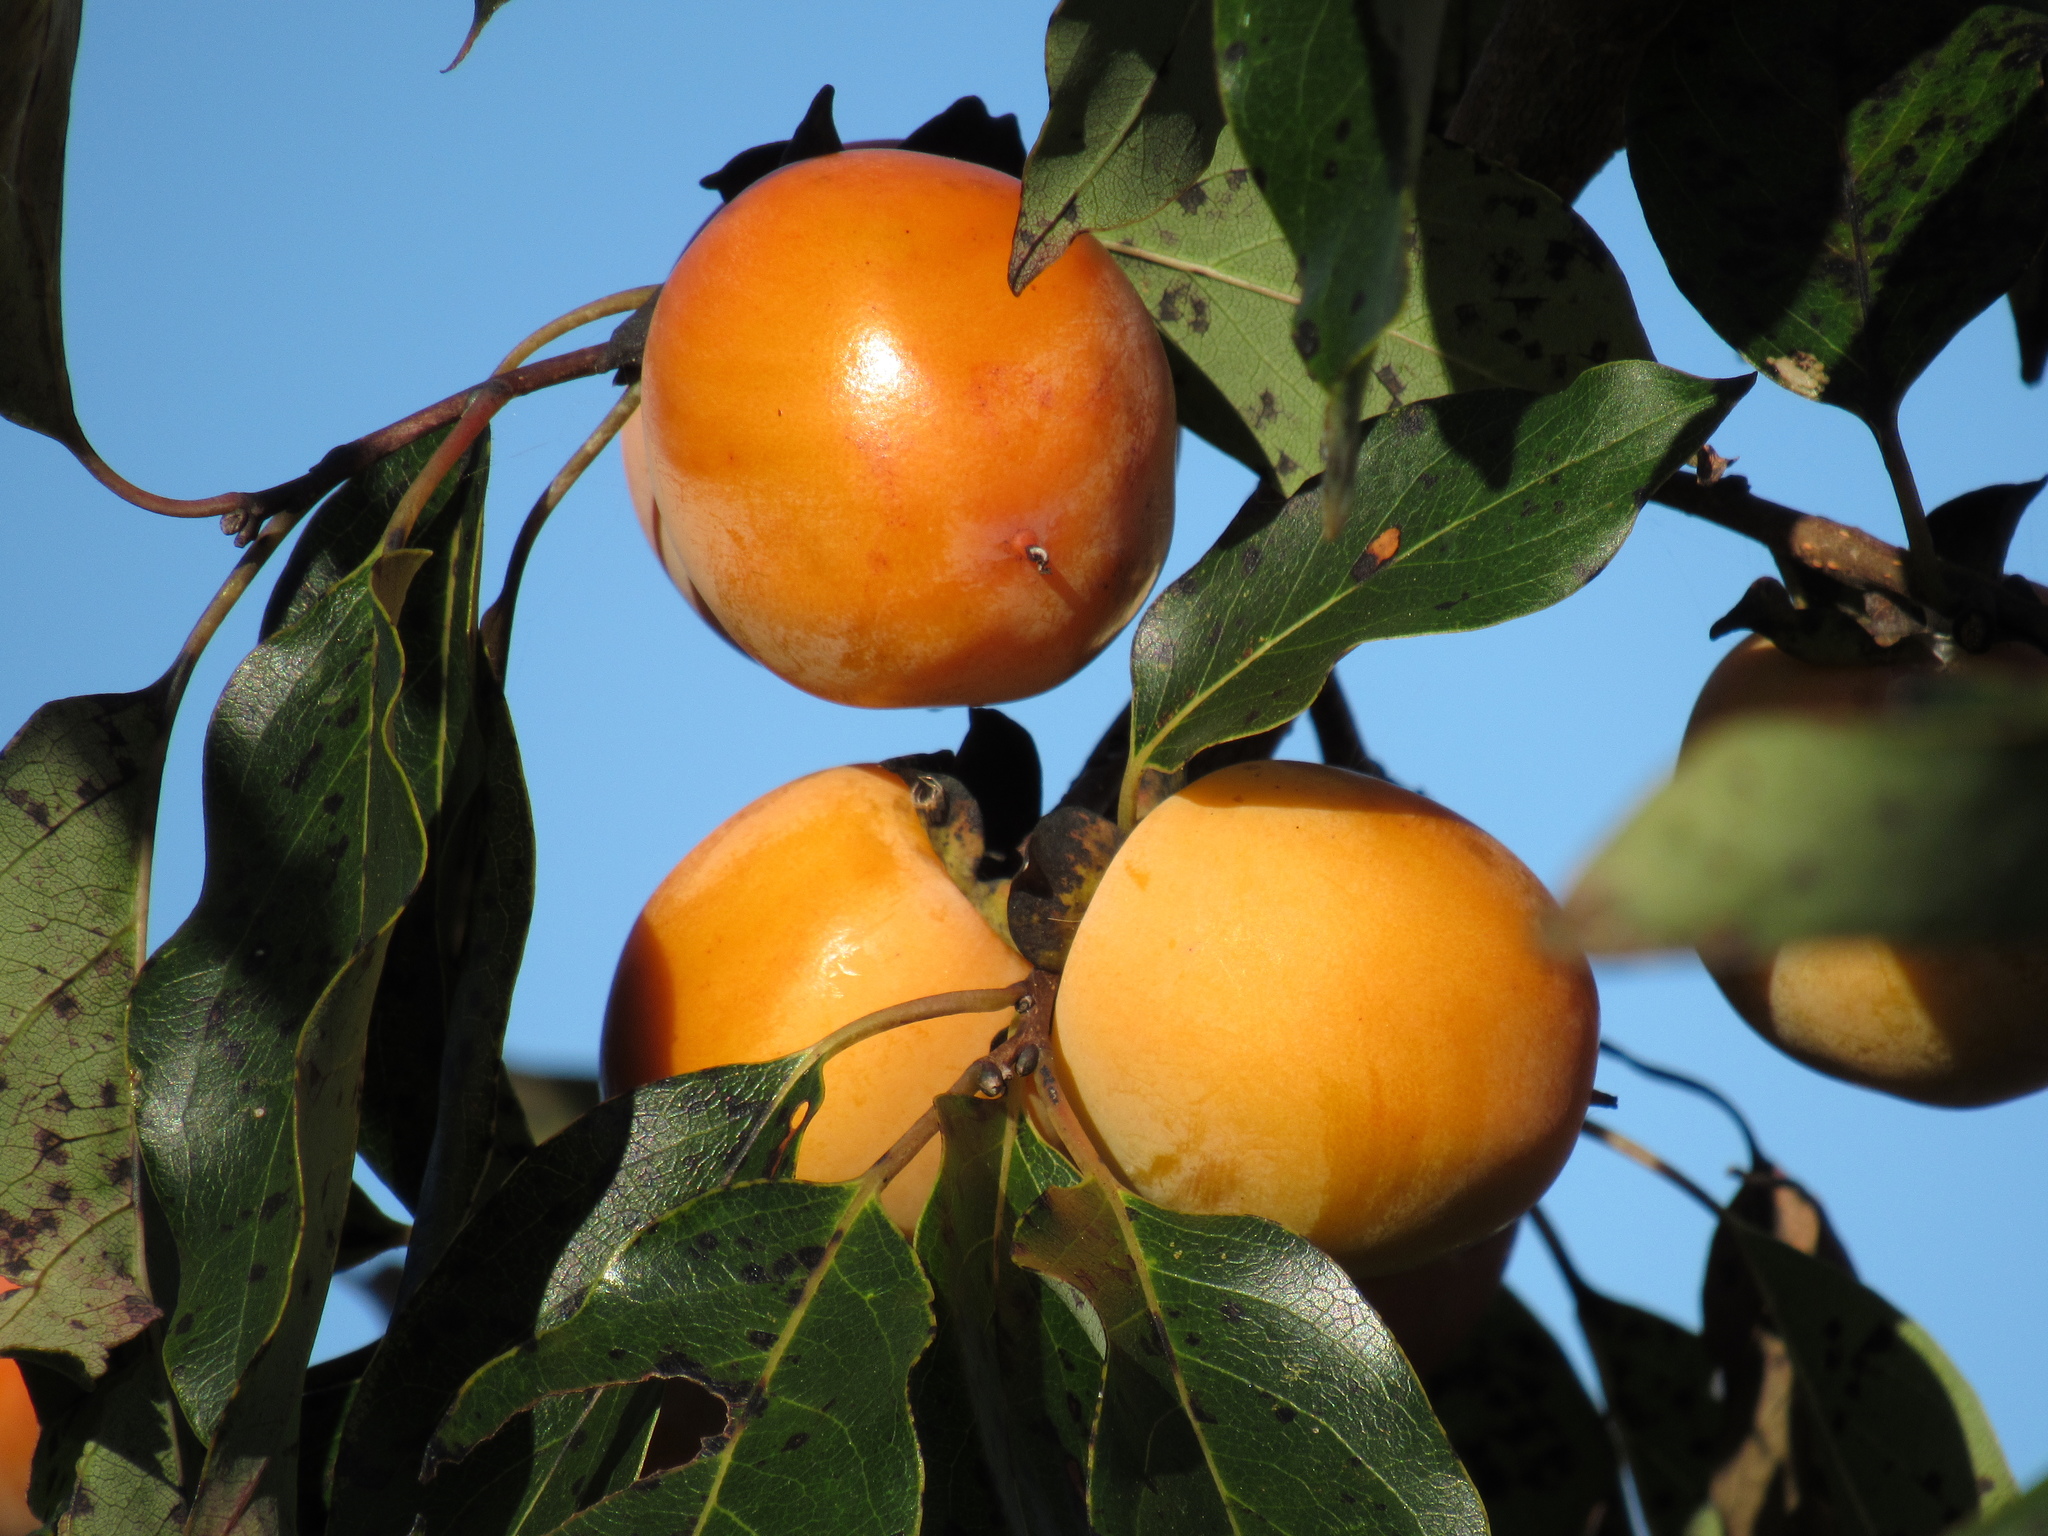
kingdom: Plantae
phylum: Tracheophyta
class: Magnoliopsida
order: Ericales
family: Ebenaceae
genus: Diospyros
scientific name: Diospyros virginiana
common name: Persimmon
